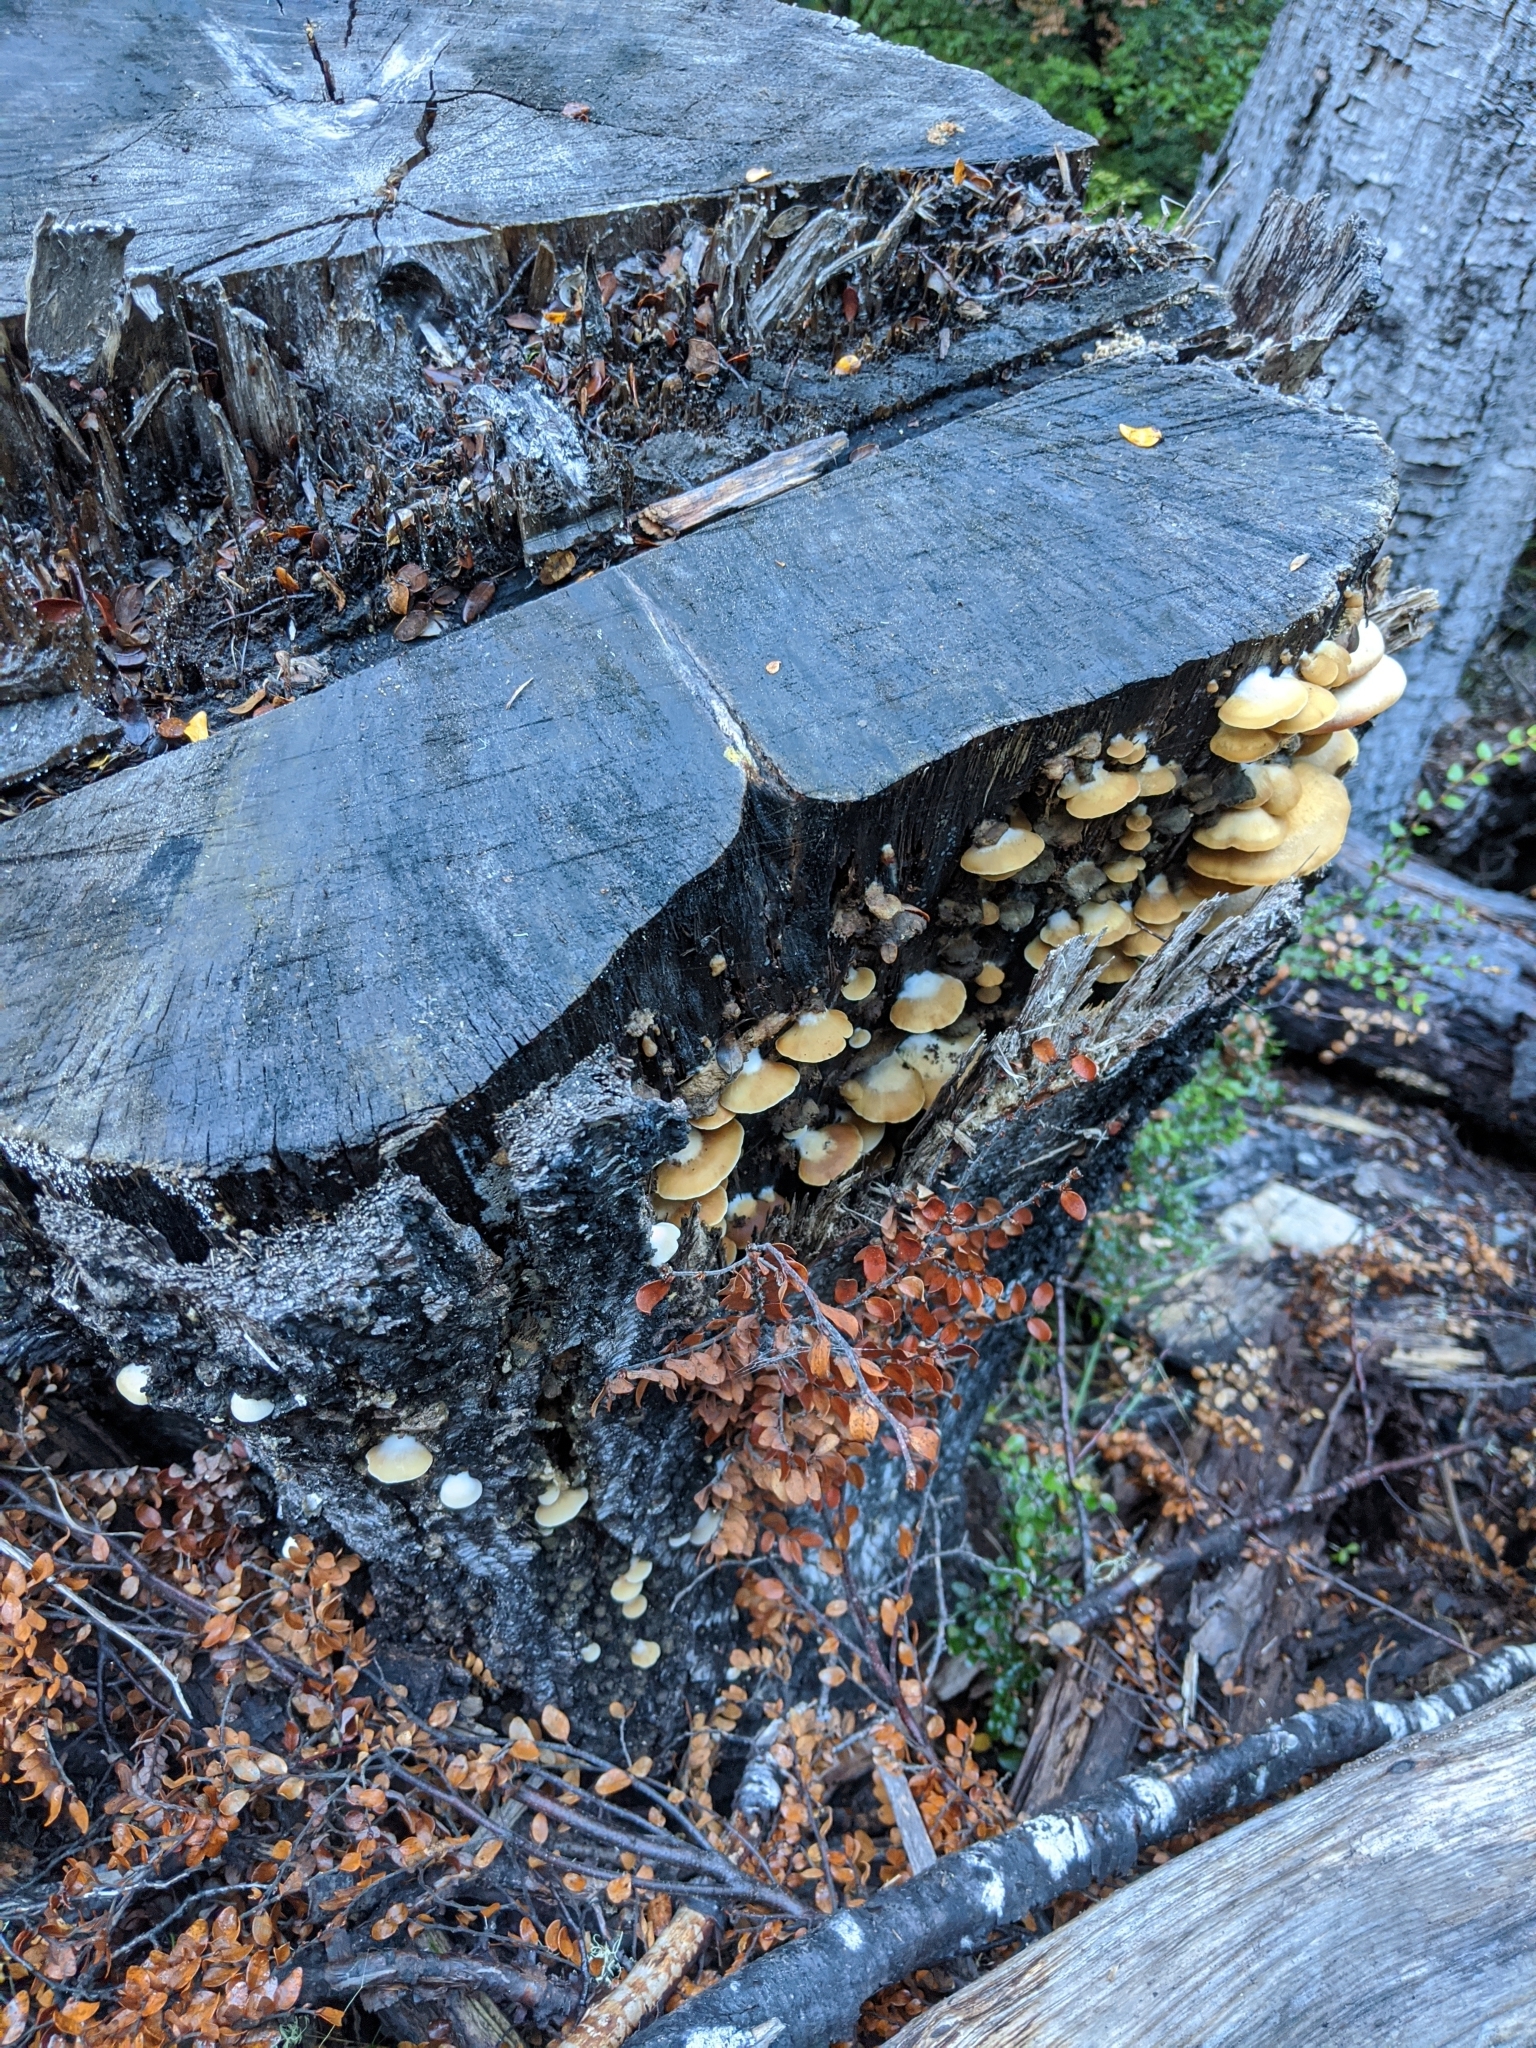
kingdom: Fungi
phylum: Basidiomycota
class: Agaricomycetes
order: Agaricales
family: Crepidotaceae
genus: Crepidotus
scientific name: Crepidotus praecipuus
